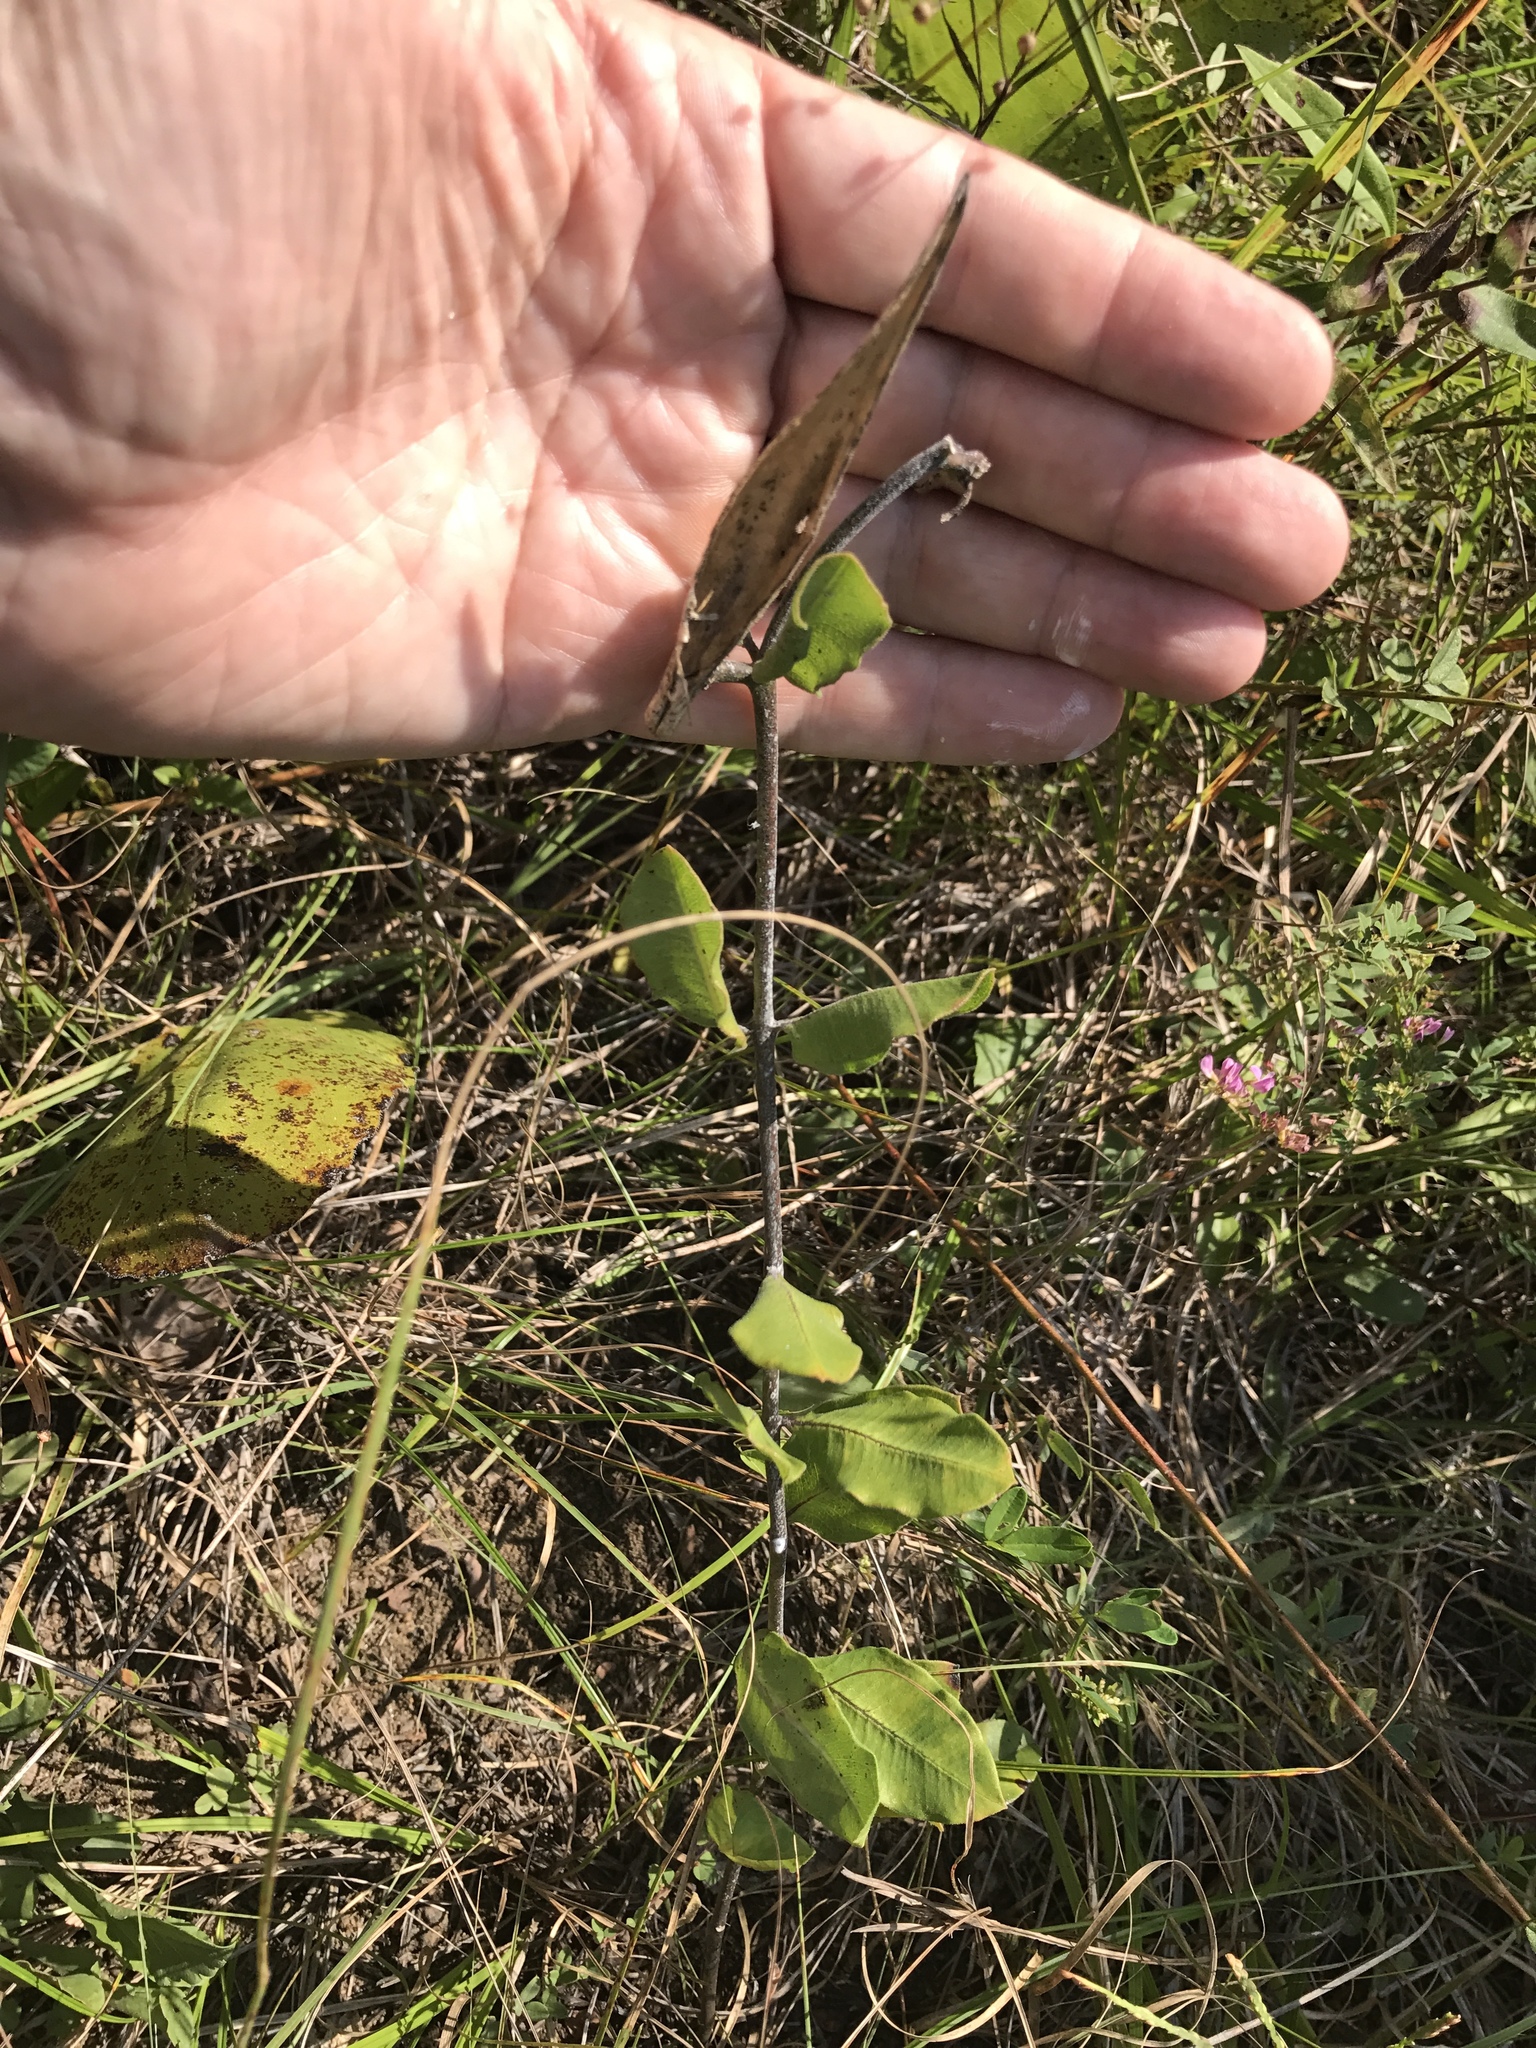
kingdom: Plantae
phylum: Tracheophyta
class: Magnoliopsida
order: Gentianales
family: Apocynaceae
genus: Asclepias
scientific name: Asclepias viridiflora
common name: Green comet milkweed
